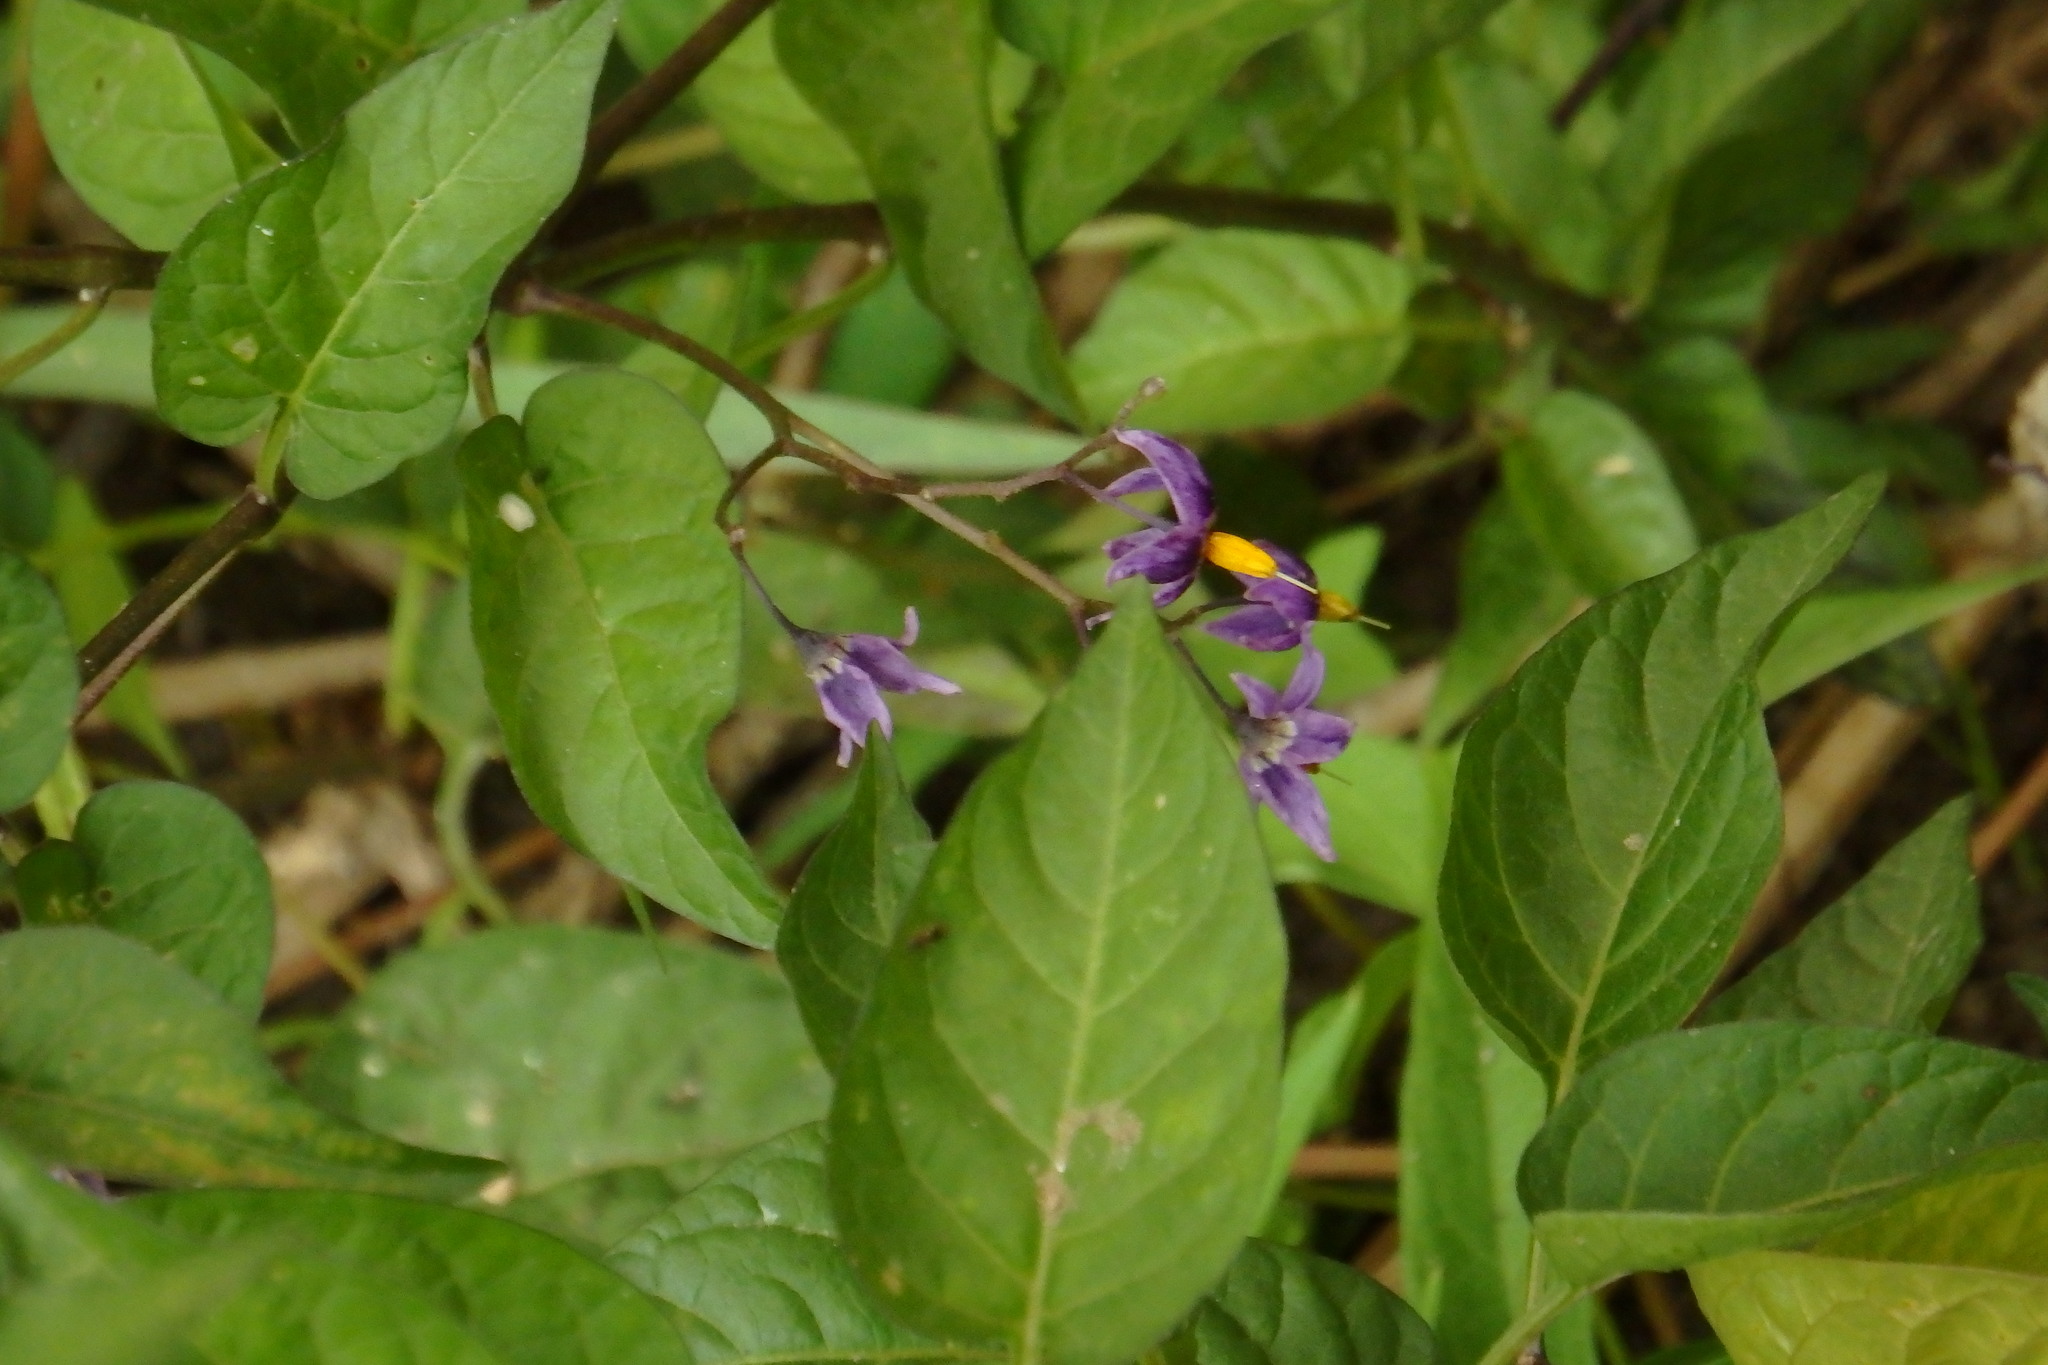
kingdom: Plantae
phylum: Tracheophyta
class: Magnoliopsida
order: Solanales
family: Solanaceae
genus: Solanum
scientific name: Solanum dulcamara
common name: Climbing nightshade
